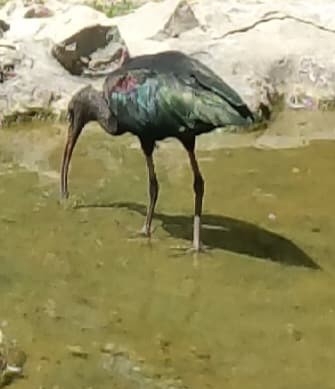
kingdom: Animalia
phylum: Chordata
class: Aves
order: Pelecaniformes
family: Threskiornithidae
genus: Plegadis
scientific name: Plegadis falcinellus
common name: Glossy ibis
